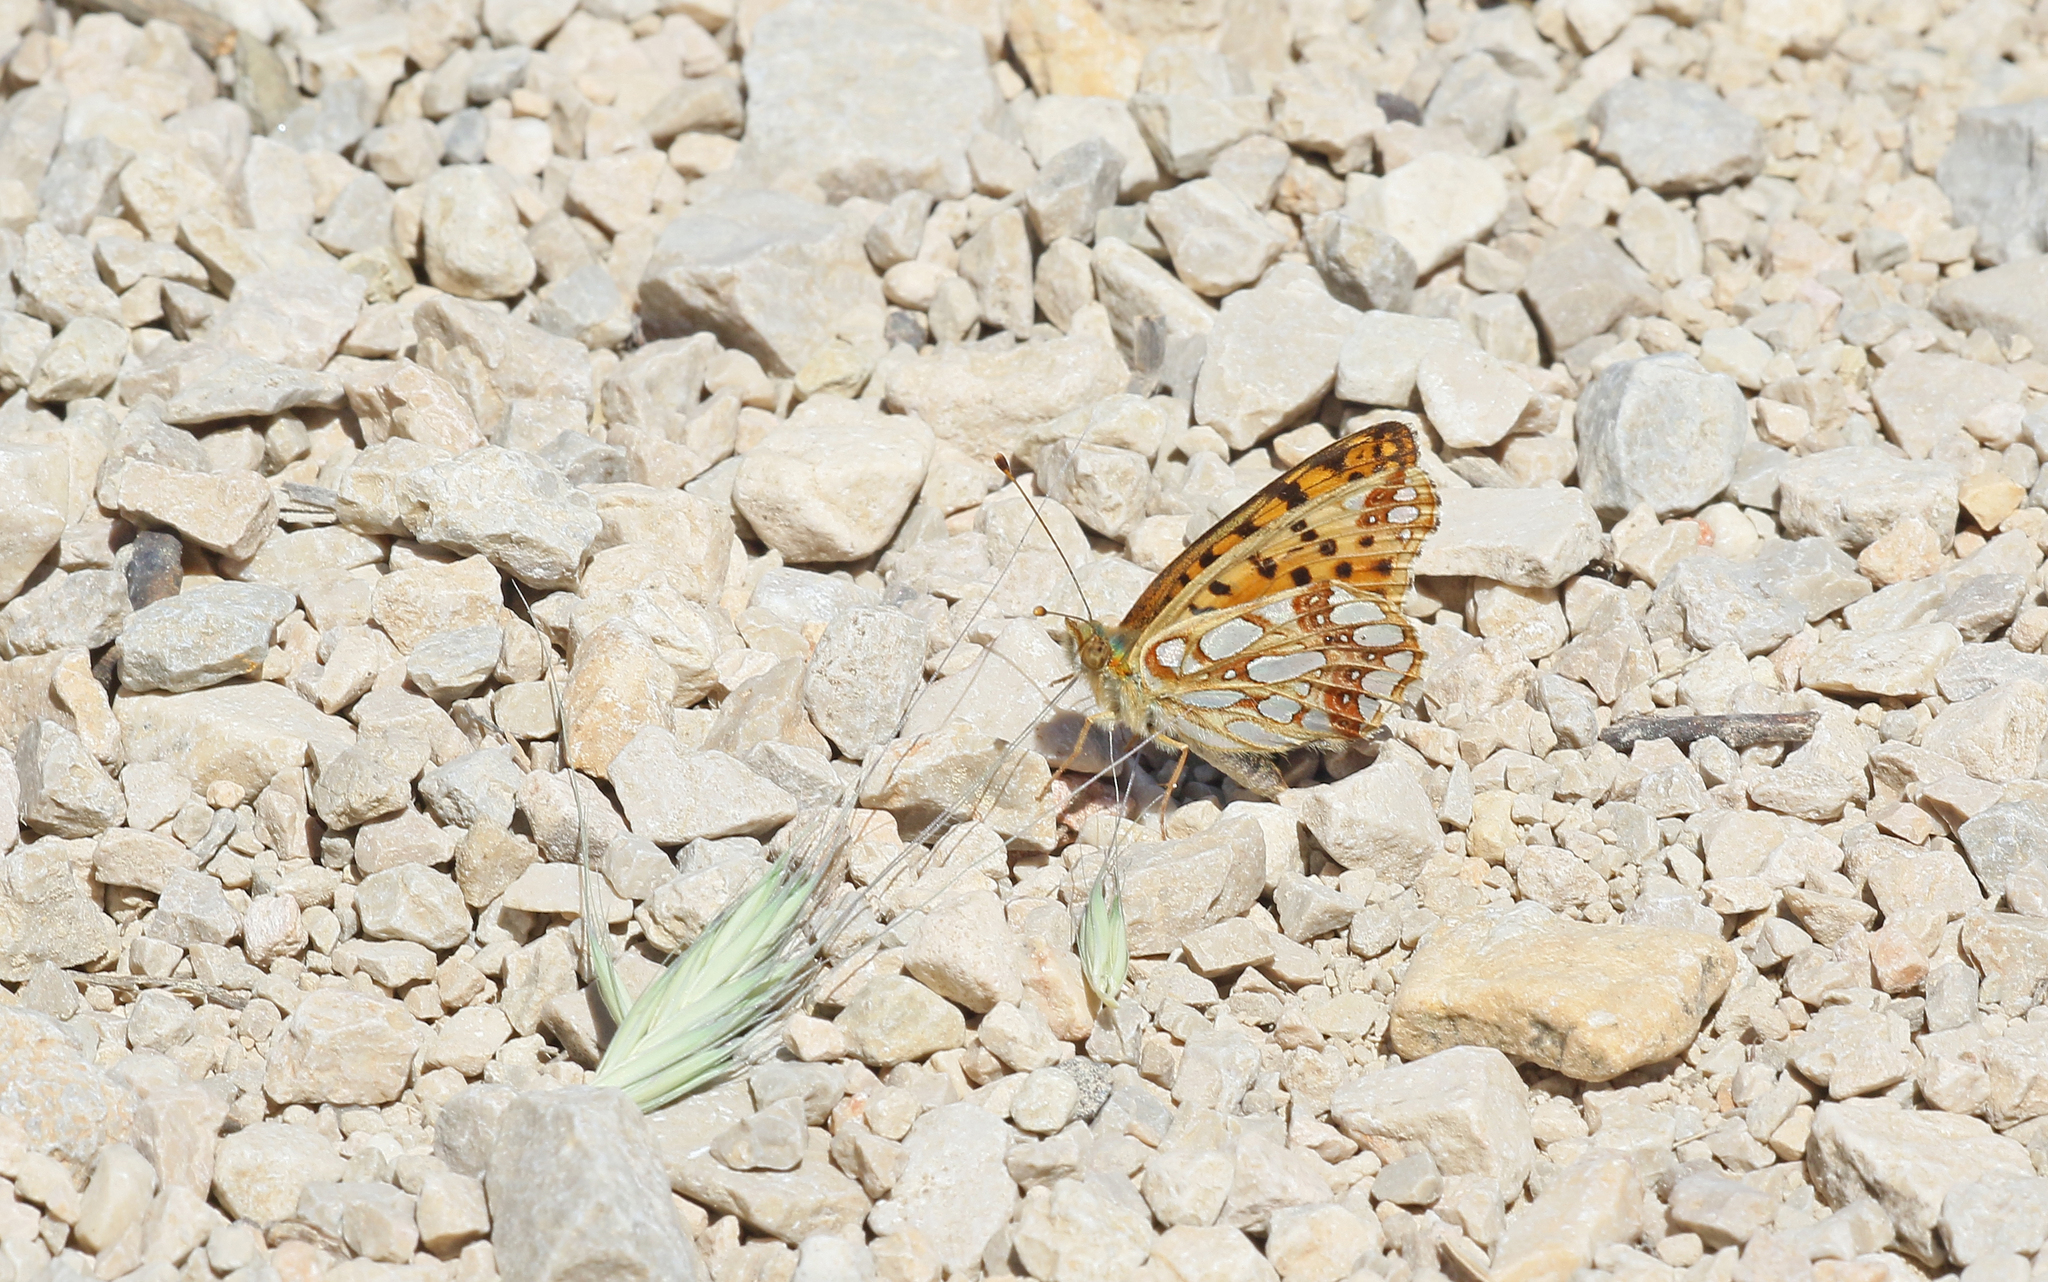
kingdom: Animalia
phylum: Arthropoda
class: Insecta
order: Lepidoptera
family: Nymphalidae
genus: Issoria
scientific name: Issoria lathonia
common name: Queen of spain fritillary
